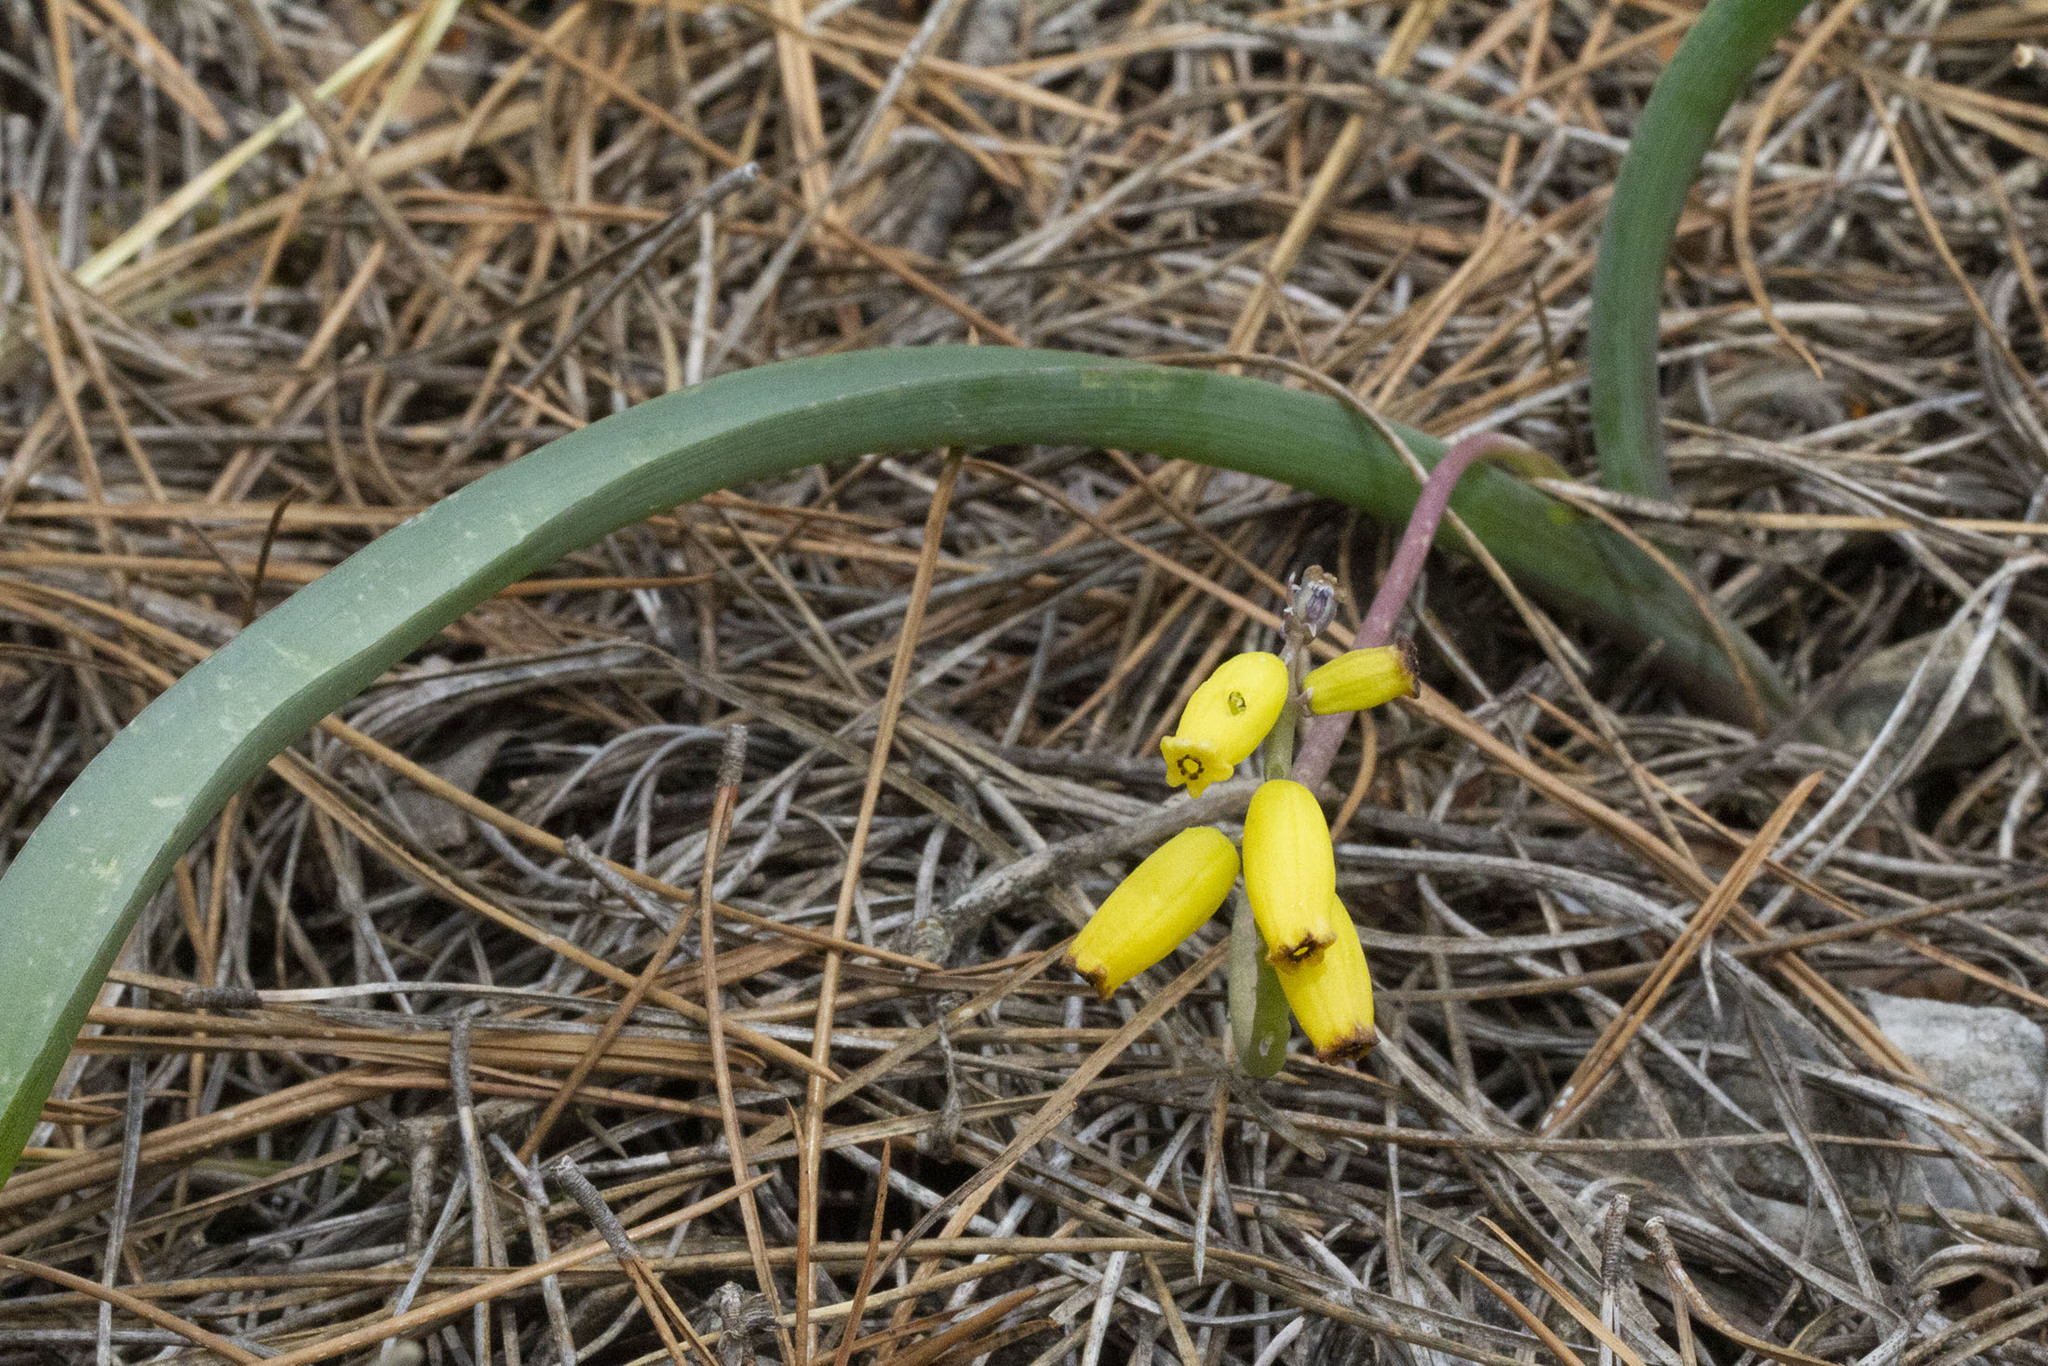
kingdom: Plantae
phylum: Tracheophyta
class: Liliopsida
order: Asparagales
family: Asparagaceae
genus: Muscarimia
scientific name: Muscarimia macrocarpa
